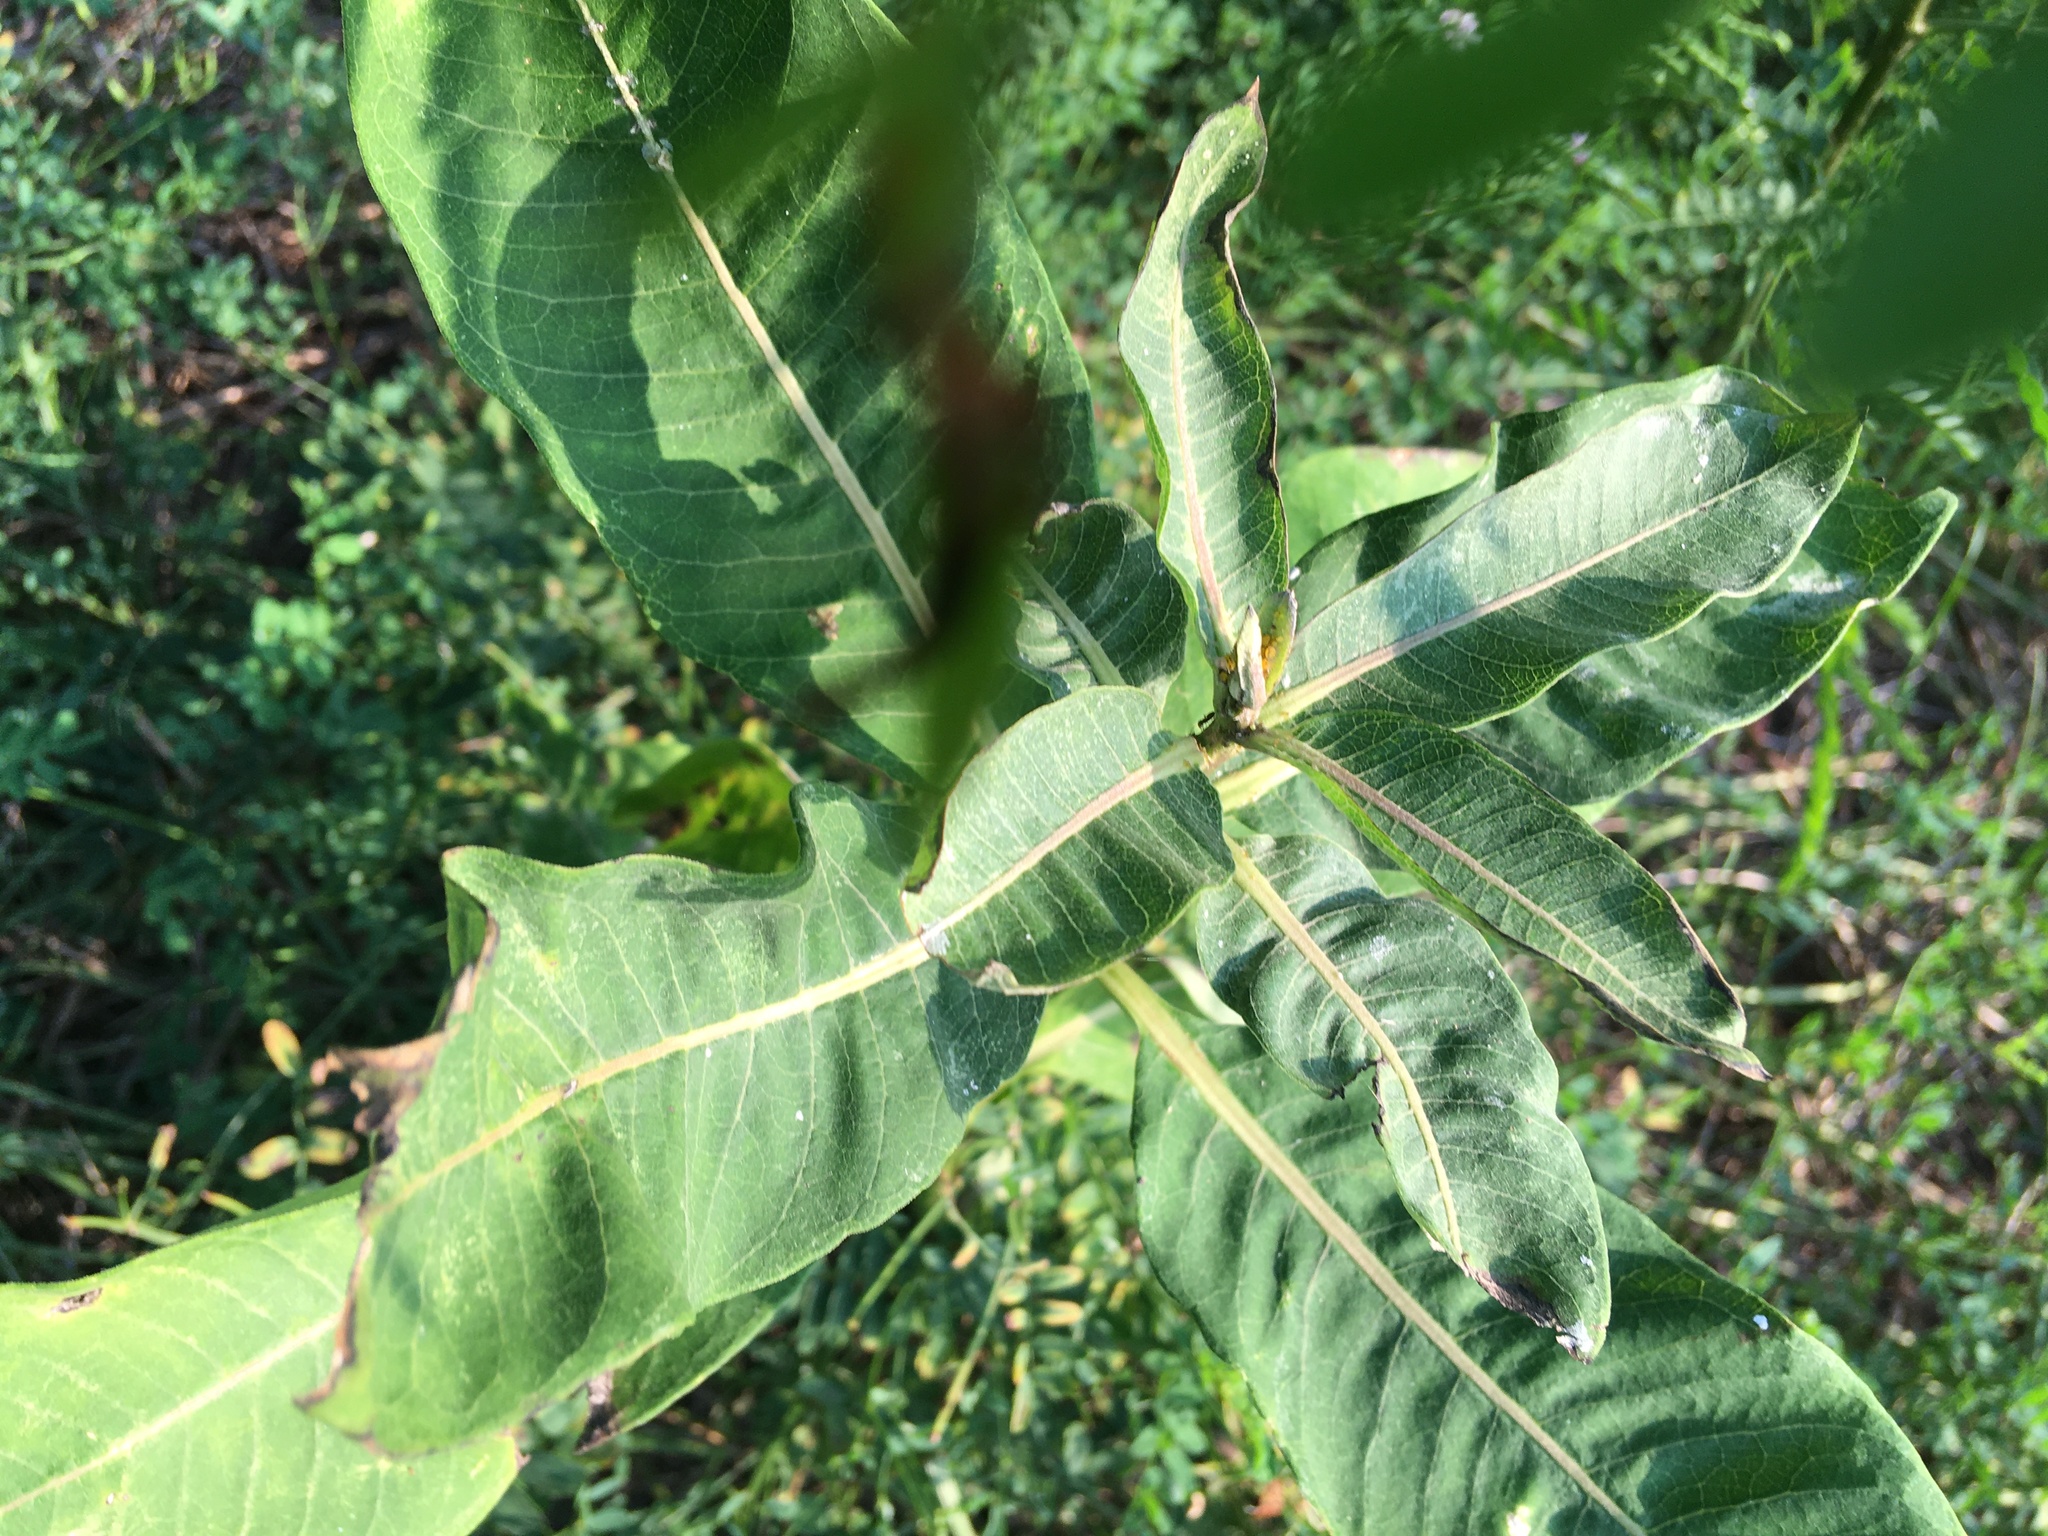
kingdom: Plantae
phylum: Tracheophyta
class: Magnoliopsida
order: Gentianales
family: Apocynaceae
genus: Asclepias
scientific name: Asclepias syriaca
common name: Common milkweed
